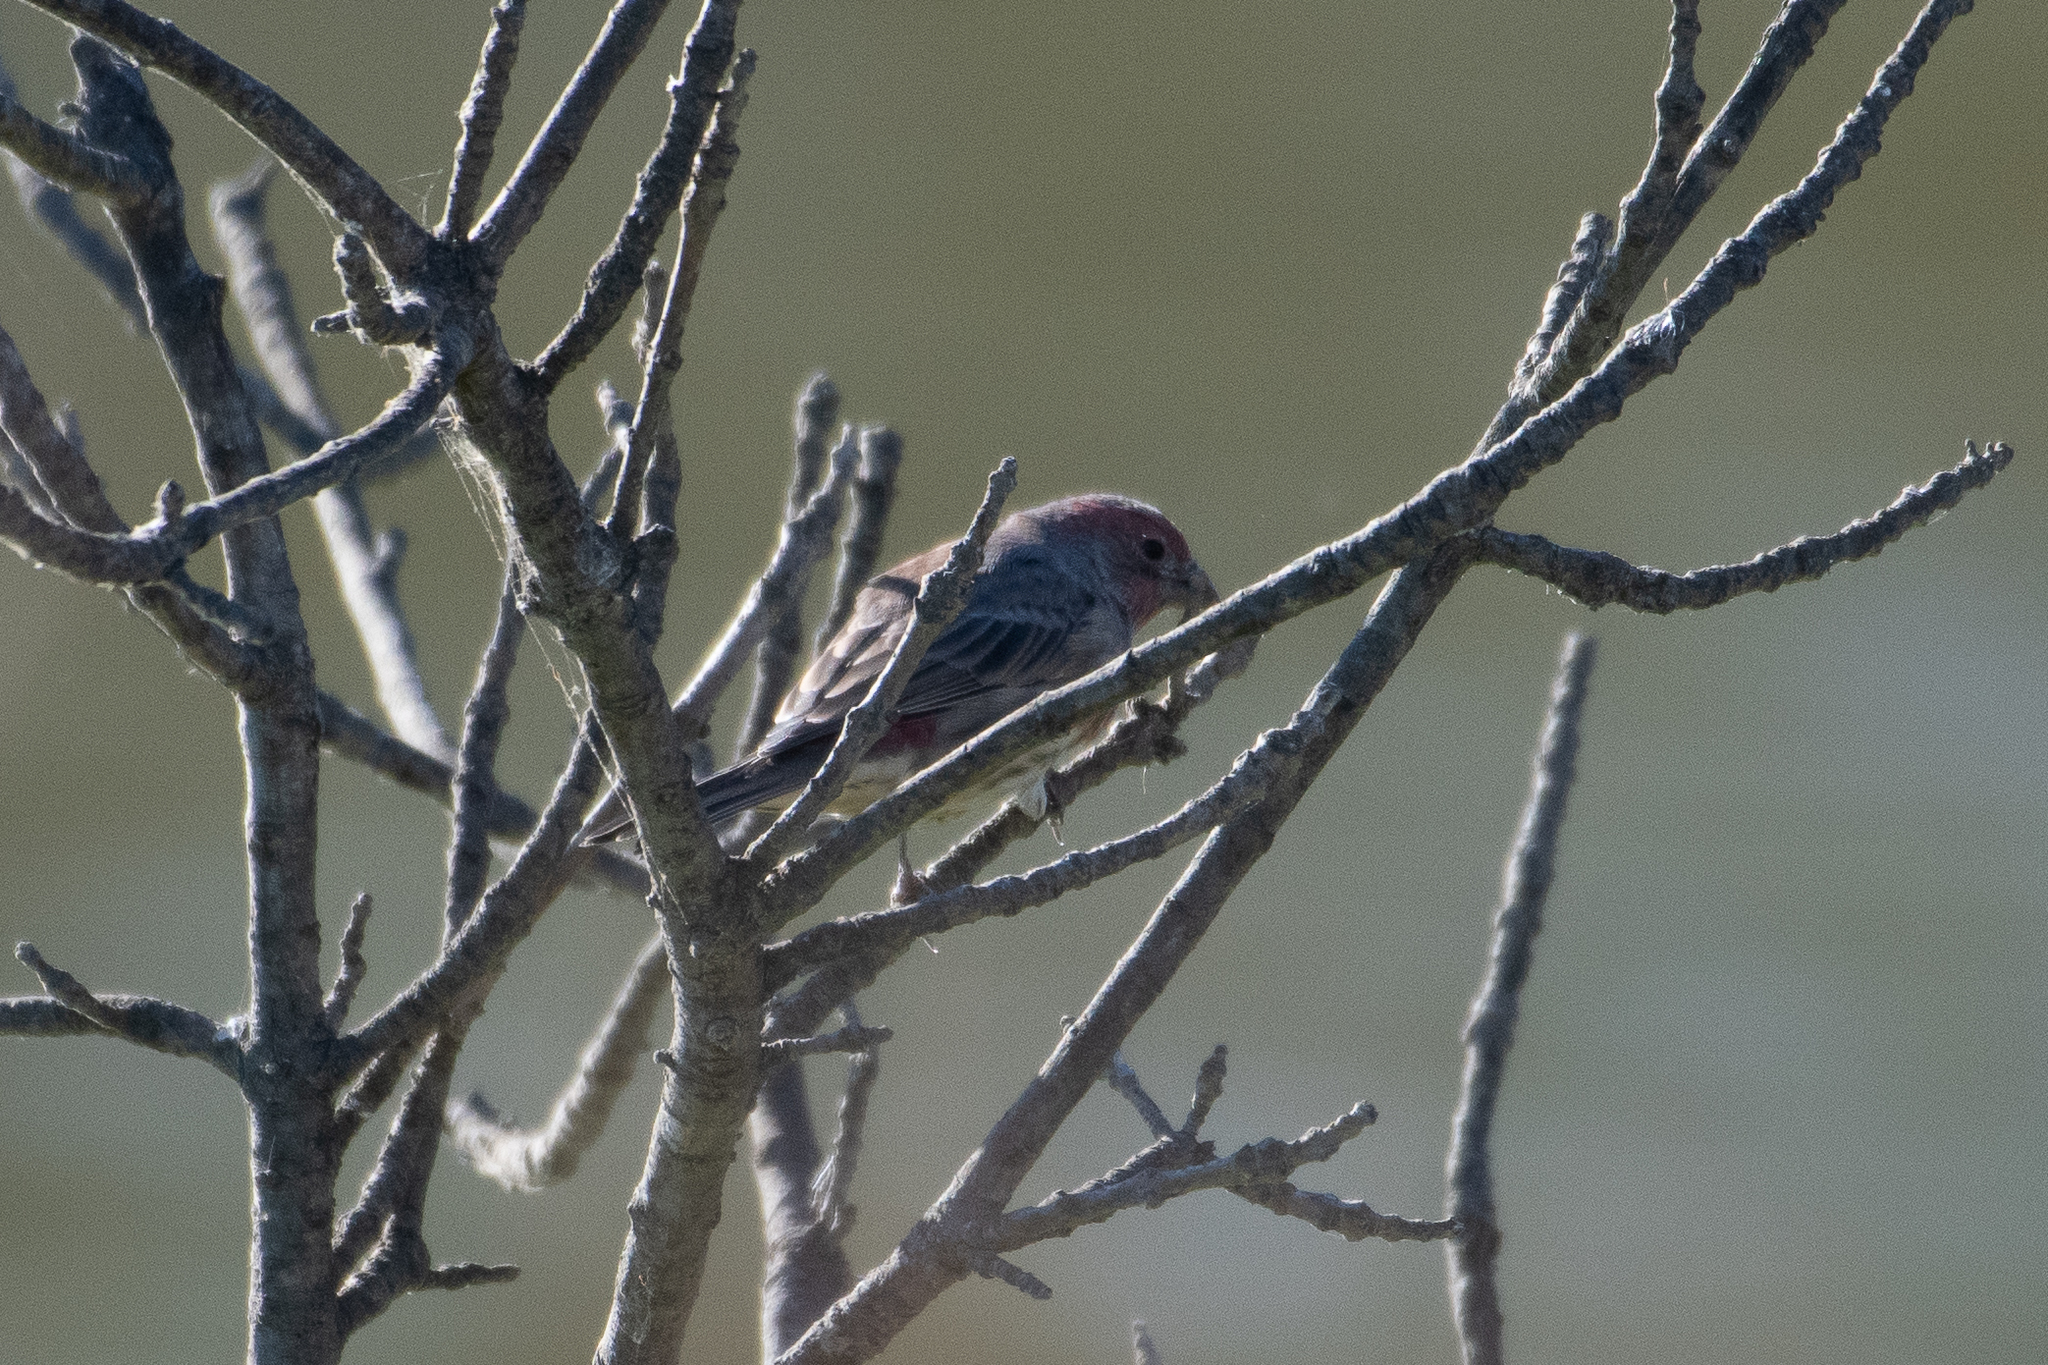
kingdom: Animalia
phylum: Chordata
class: Aves
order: Passeriformes
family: Fringillidae
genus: Haemorhous
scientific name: Haemorhous mexicanus
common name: House finch
